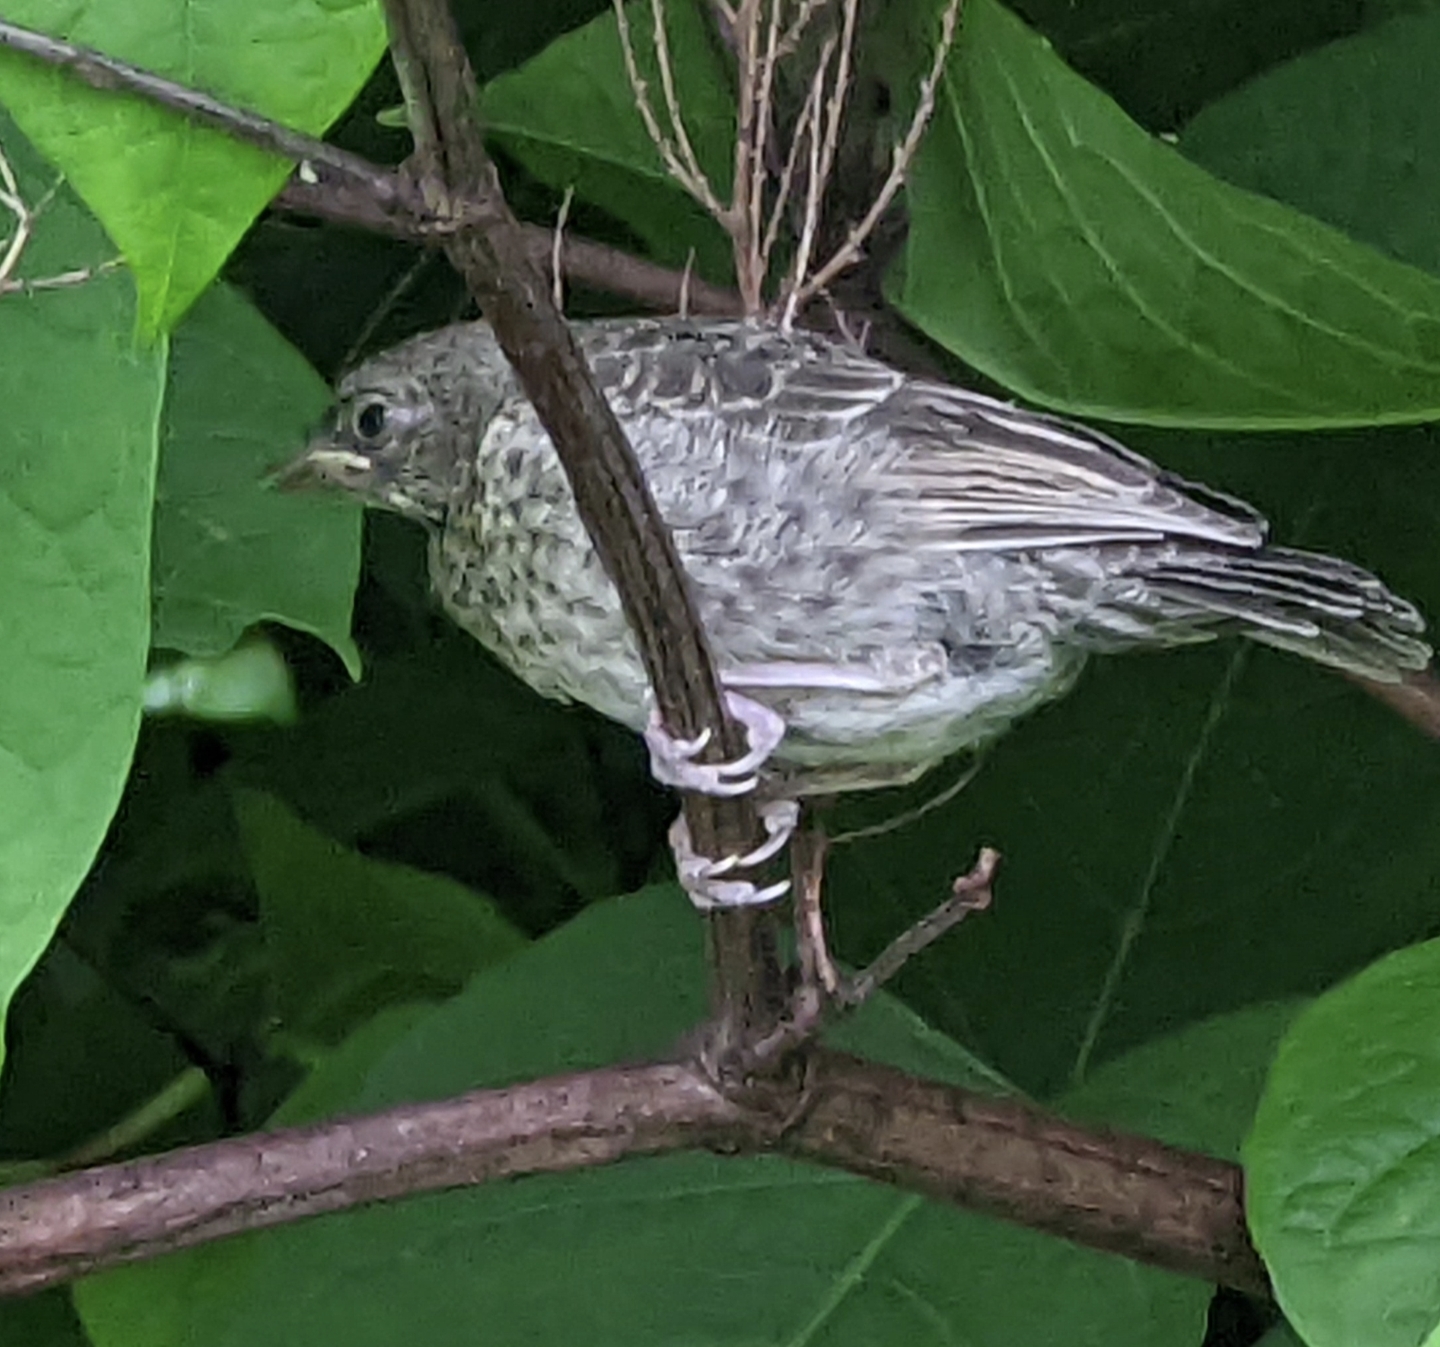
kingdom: Animalia
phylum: Chordata
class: Aves
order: Passeriformes
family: Icteridae
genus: Molothrus
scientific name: Molothrus ater
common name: Brown-headed cowbird
